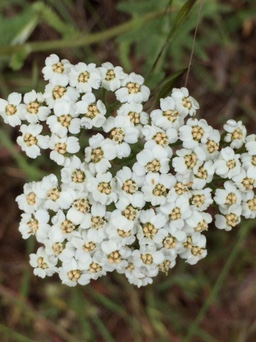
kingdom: Plantae
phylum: Tracheophyta
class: Magnoliopsida
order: Asterales
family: Asteraceae
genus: Achillea
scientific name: Achillea millefolium
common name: Yarrow
